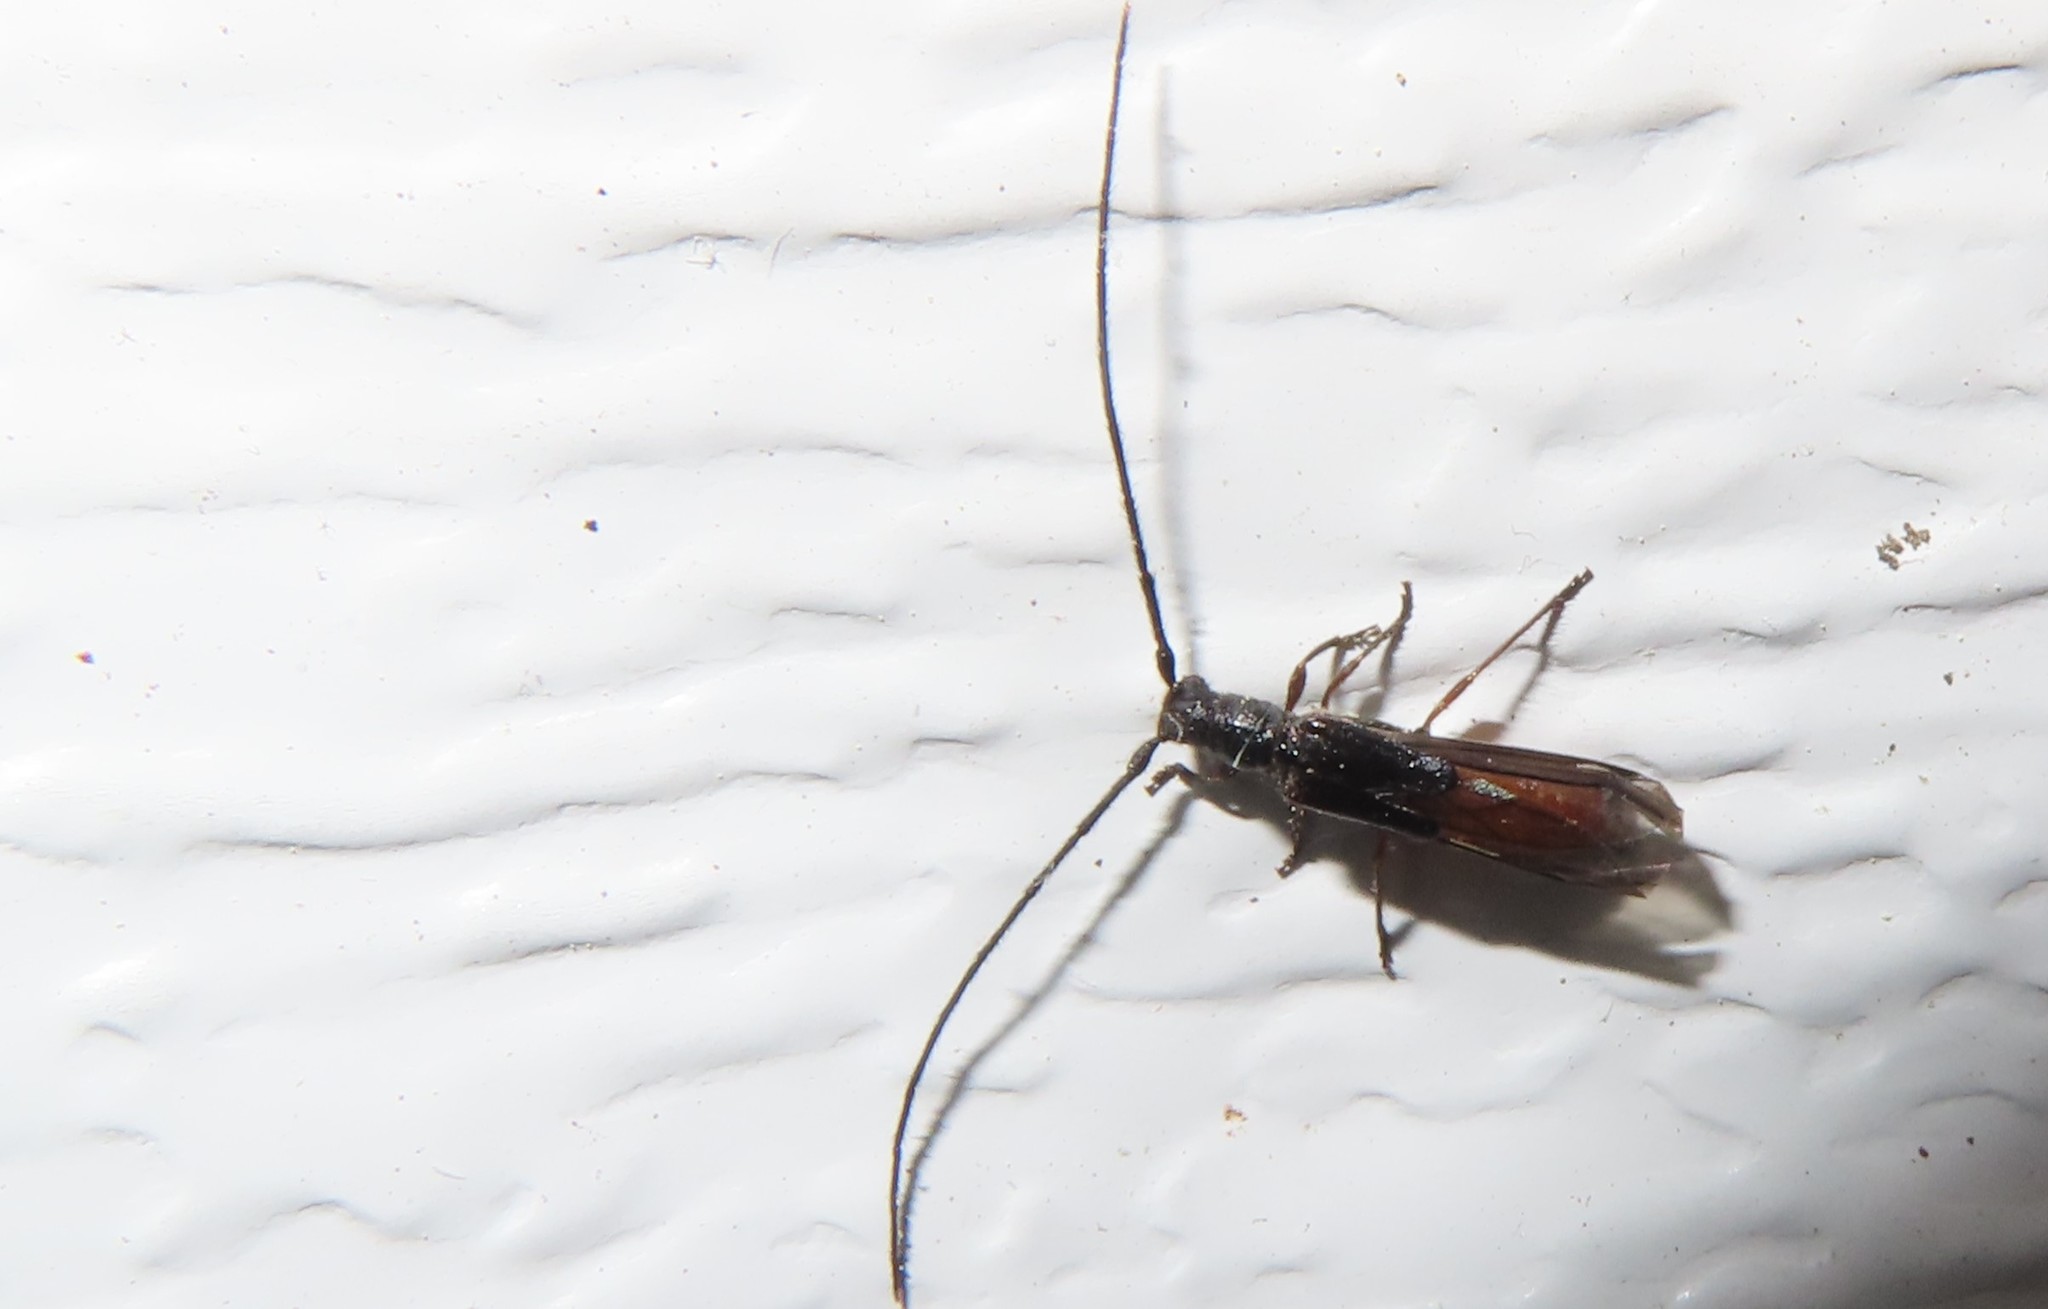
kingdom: Animalia
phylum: Arthropoda
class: Insecta
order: Coleoptera
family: Cerambycidae
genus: Molorchus
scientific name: Molorchus bimaculatus
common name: Bimaculate longhorn beetle
